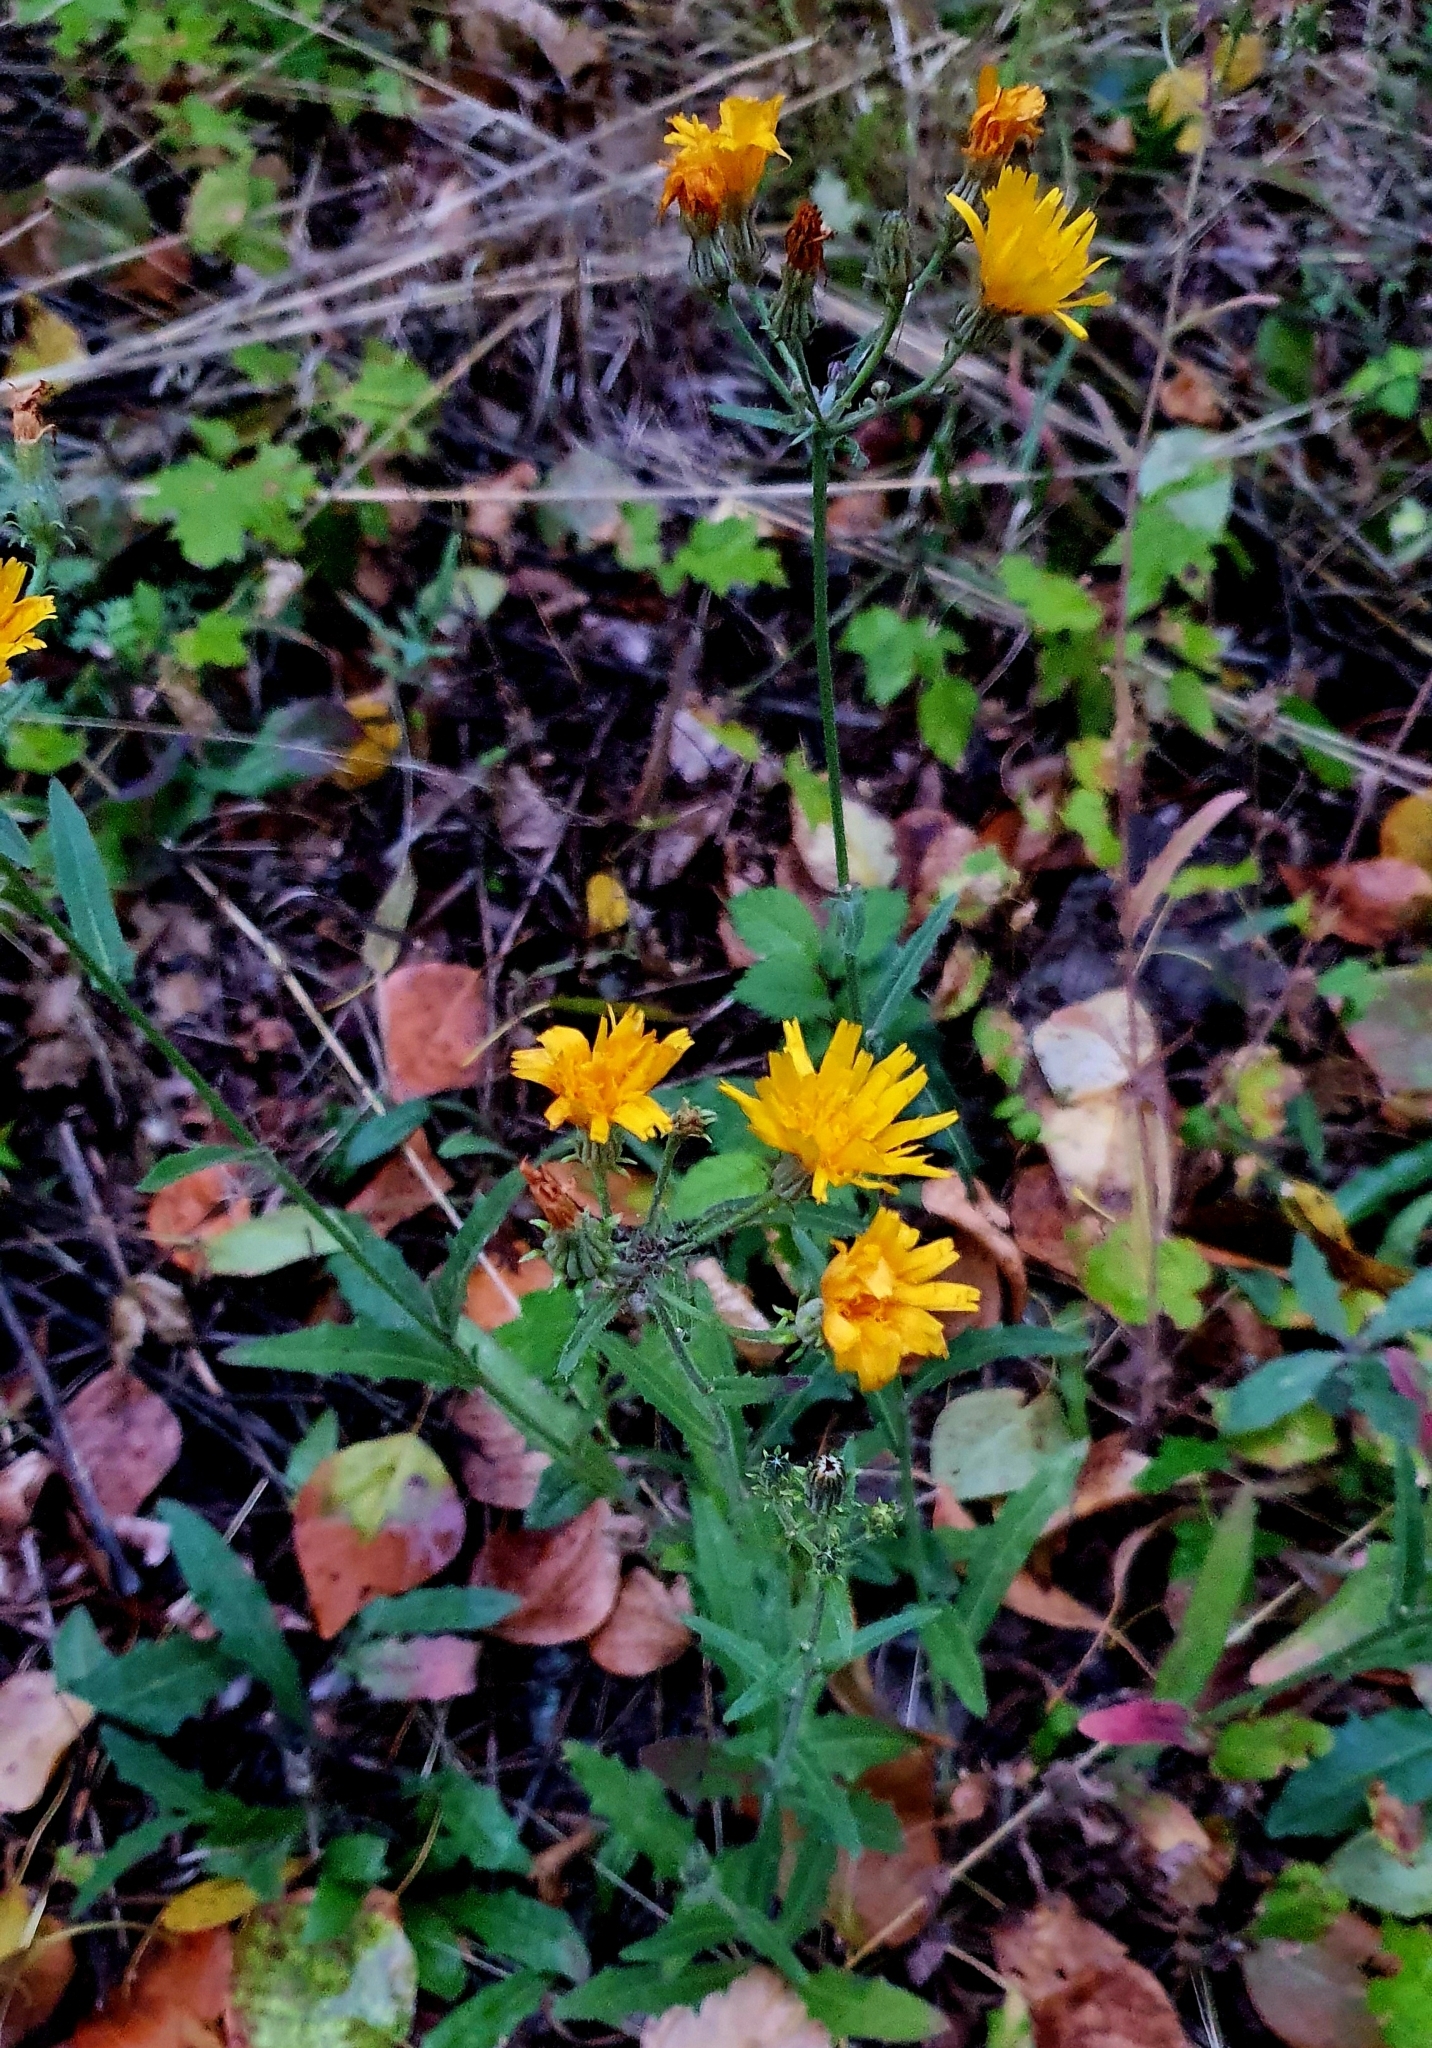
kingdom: Plantae
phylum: Tracheophyta
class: Magnoliopsida
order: Asterales
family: Asteraceae
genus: Picris
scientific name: Picris hieracioides
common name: Hawkweed oxtongue
